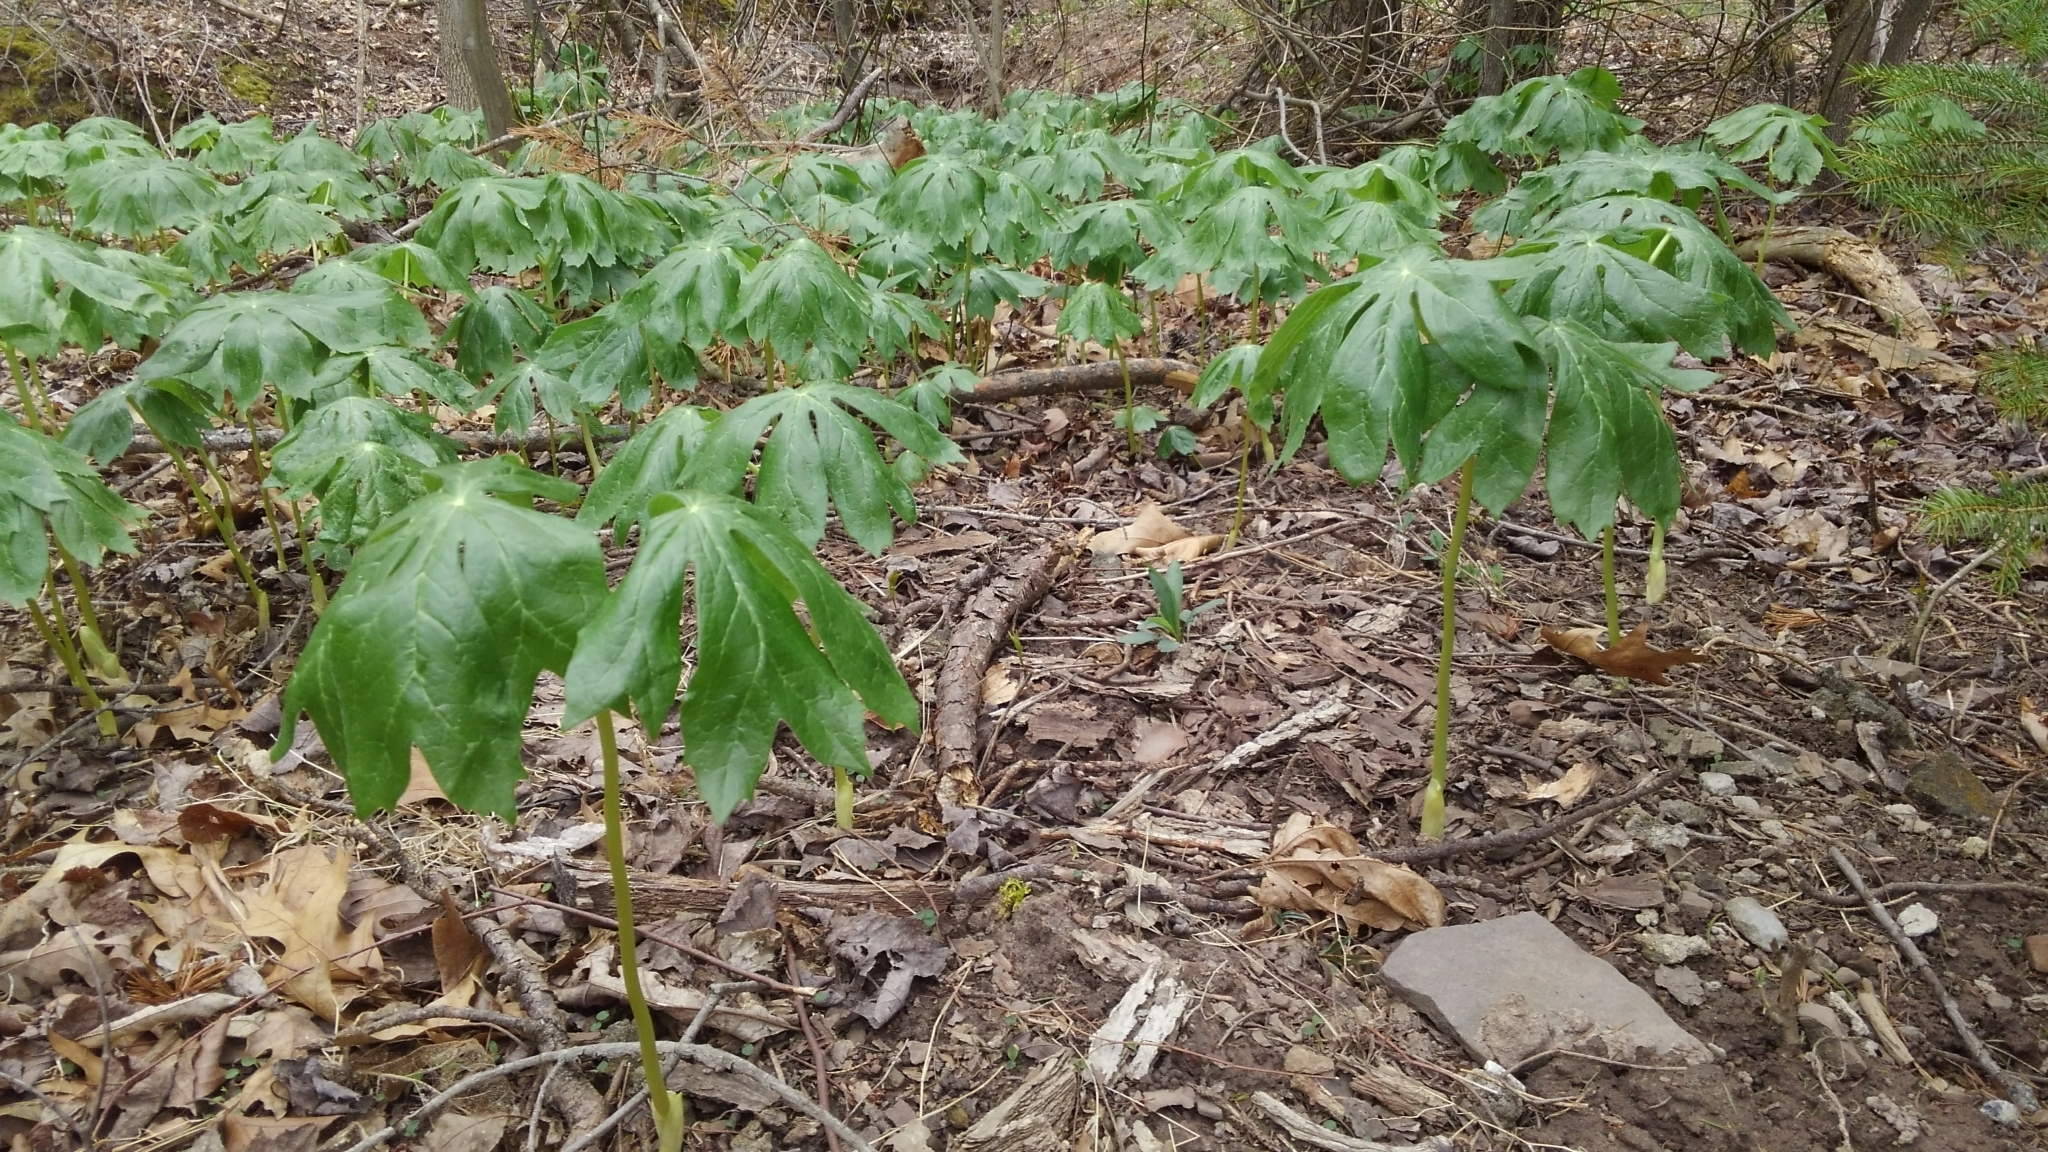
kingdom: Plantae
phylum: Tracheophyta
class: Magnoliopsida
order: Ranunculales
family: Berberidaceae
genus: Podophyllum
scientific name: Podophyllum peltatum
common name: Wild mandrake
